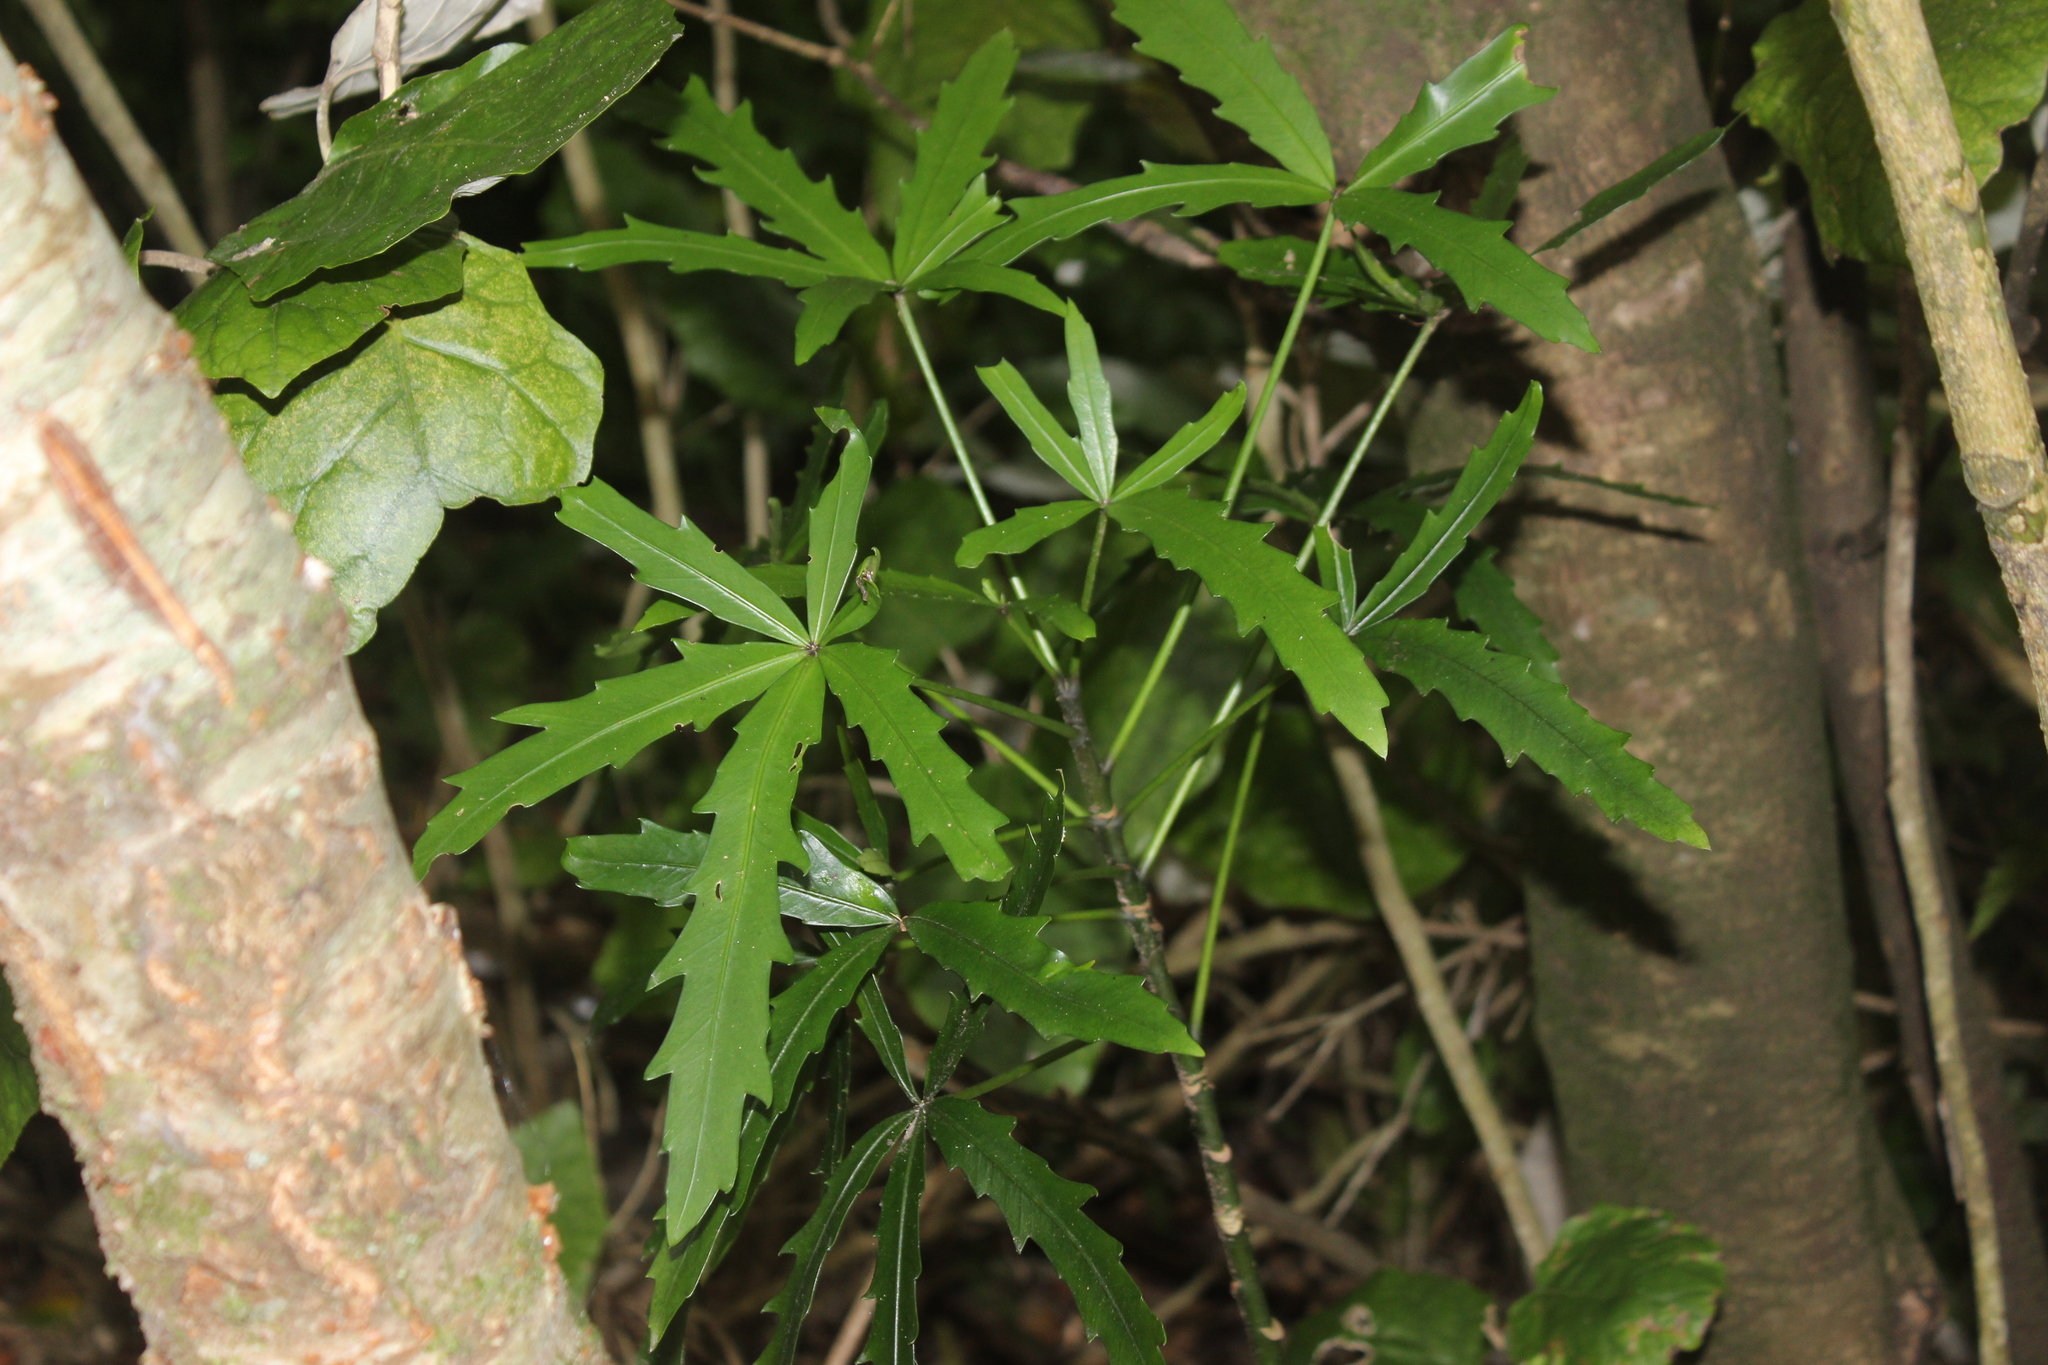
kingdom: Plantae
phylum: Tracheophyta
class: Magnoliopsida
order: Apiales
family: Araliaceae
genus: Pseudopanax
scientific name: Pseudopanax
